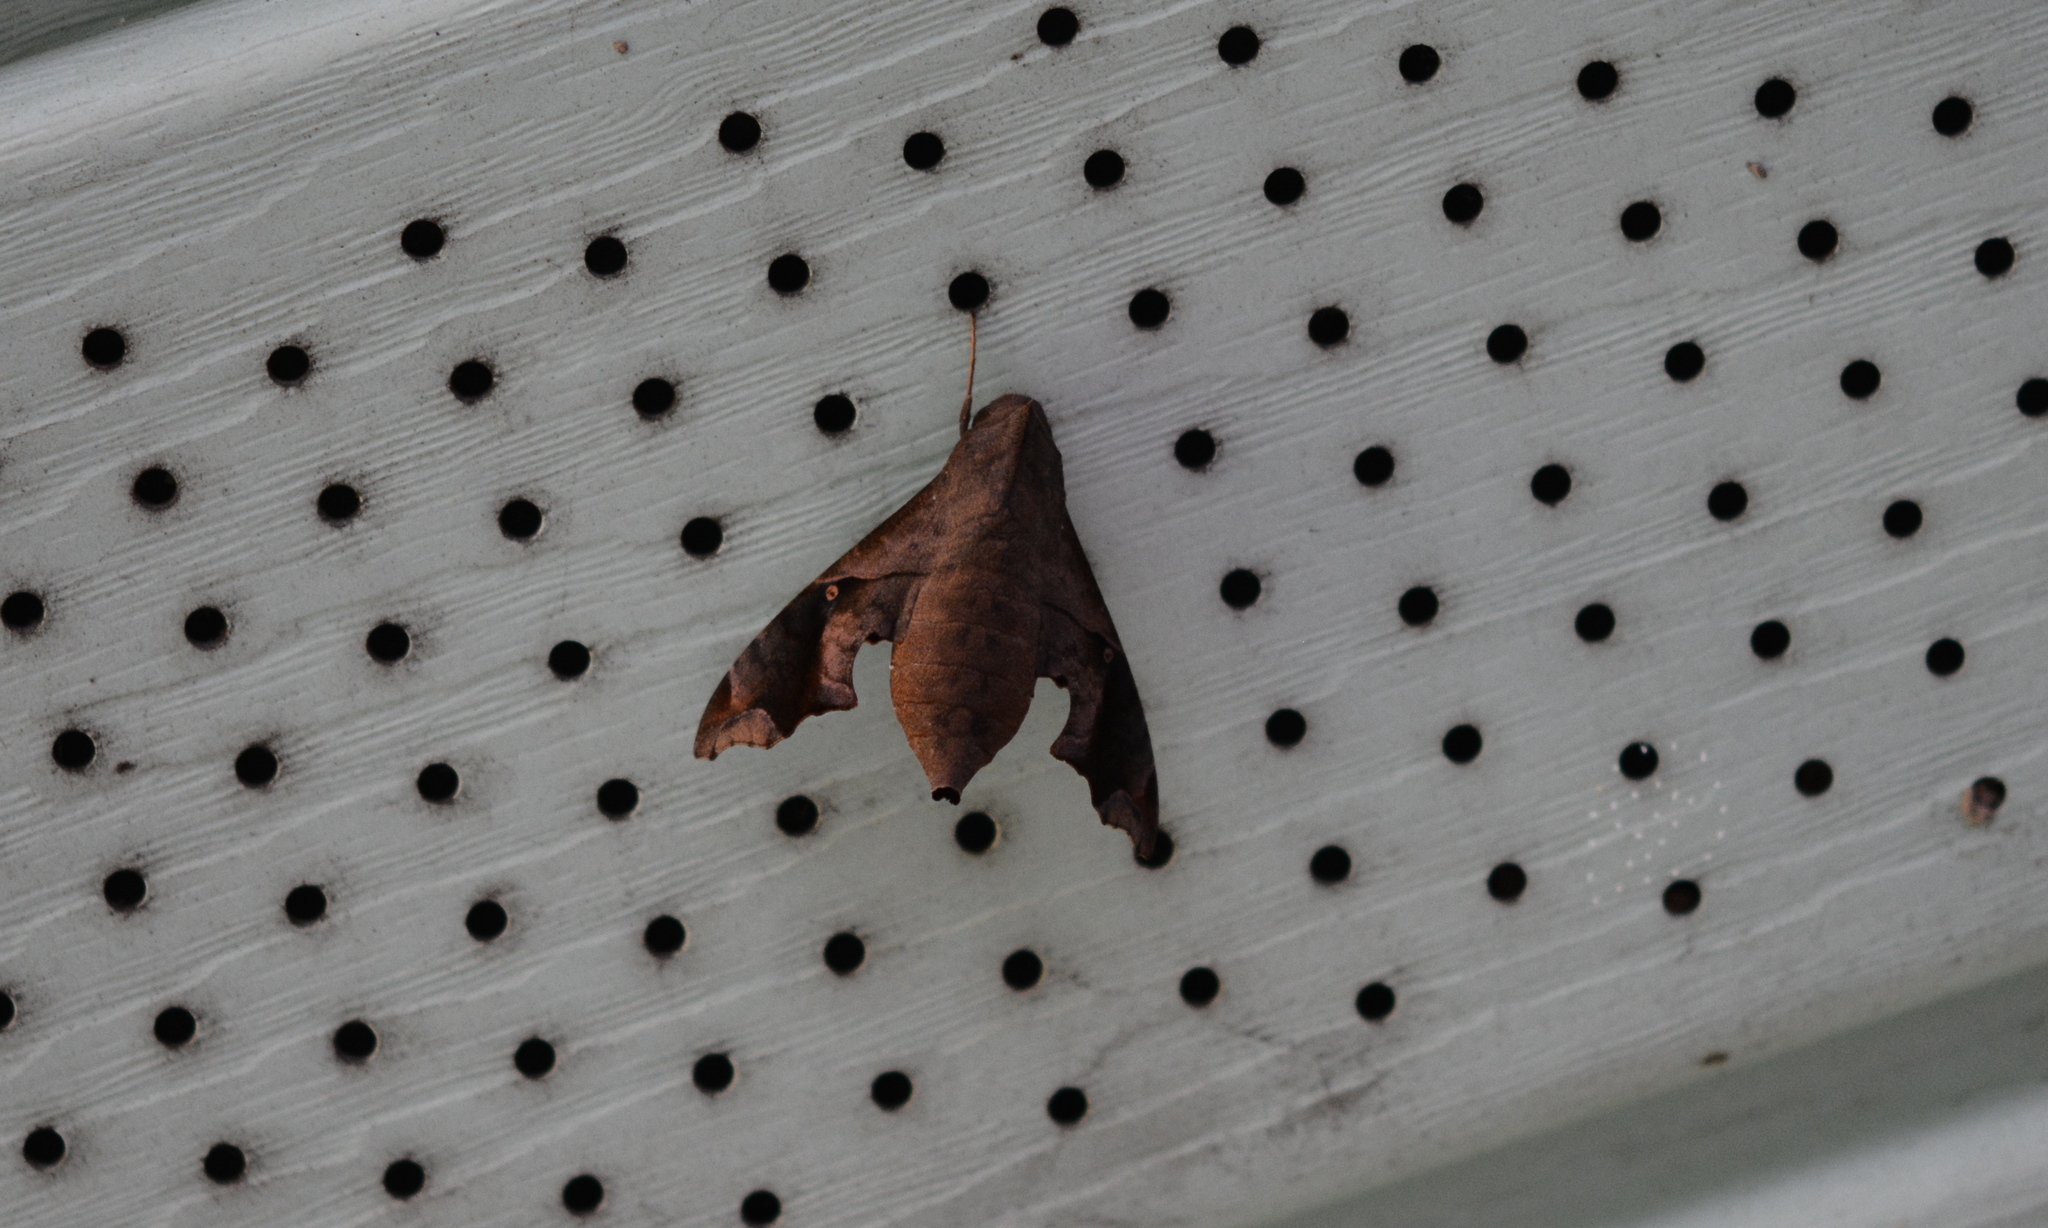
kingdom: Animalia
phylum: Arthropoda
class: Insecta
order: Lepidoptera
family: Sphingidae
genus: Enyo
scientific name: Enyo lugubris
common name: Mournful sphinx
